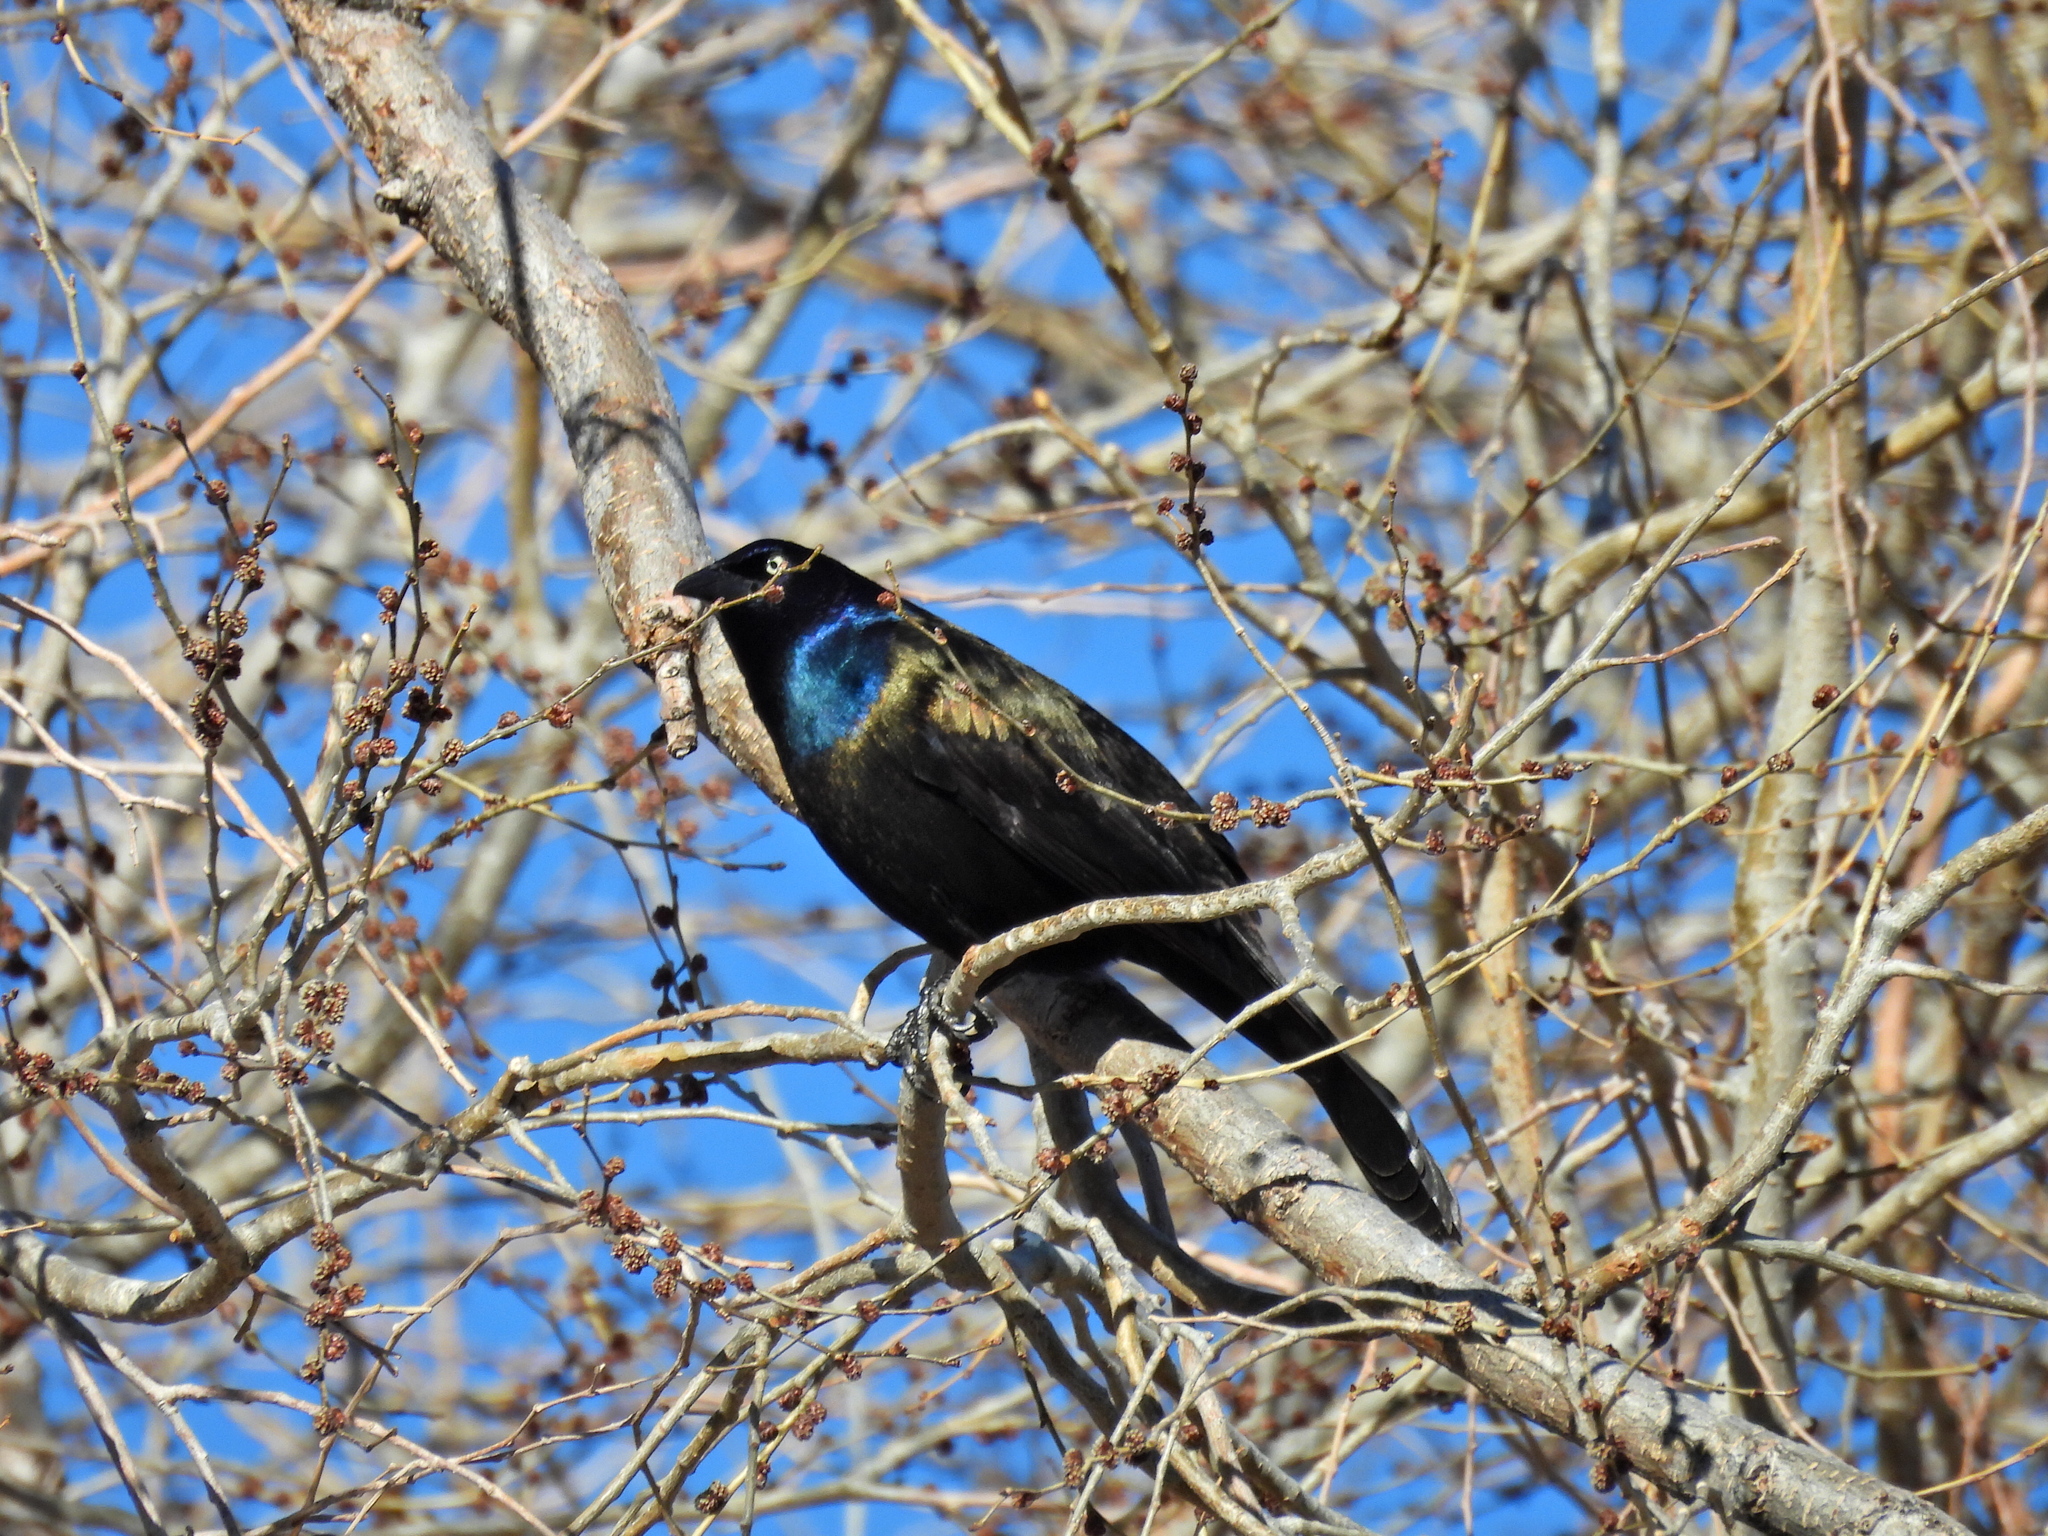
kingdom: Animalia
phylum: Chordata
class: Aves
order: Passeriformes
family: Icteridae
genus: Quiscalus
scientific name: Quiscalus quiscula
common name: Common grackle
